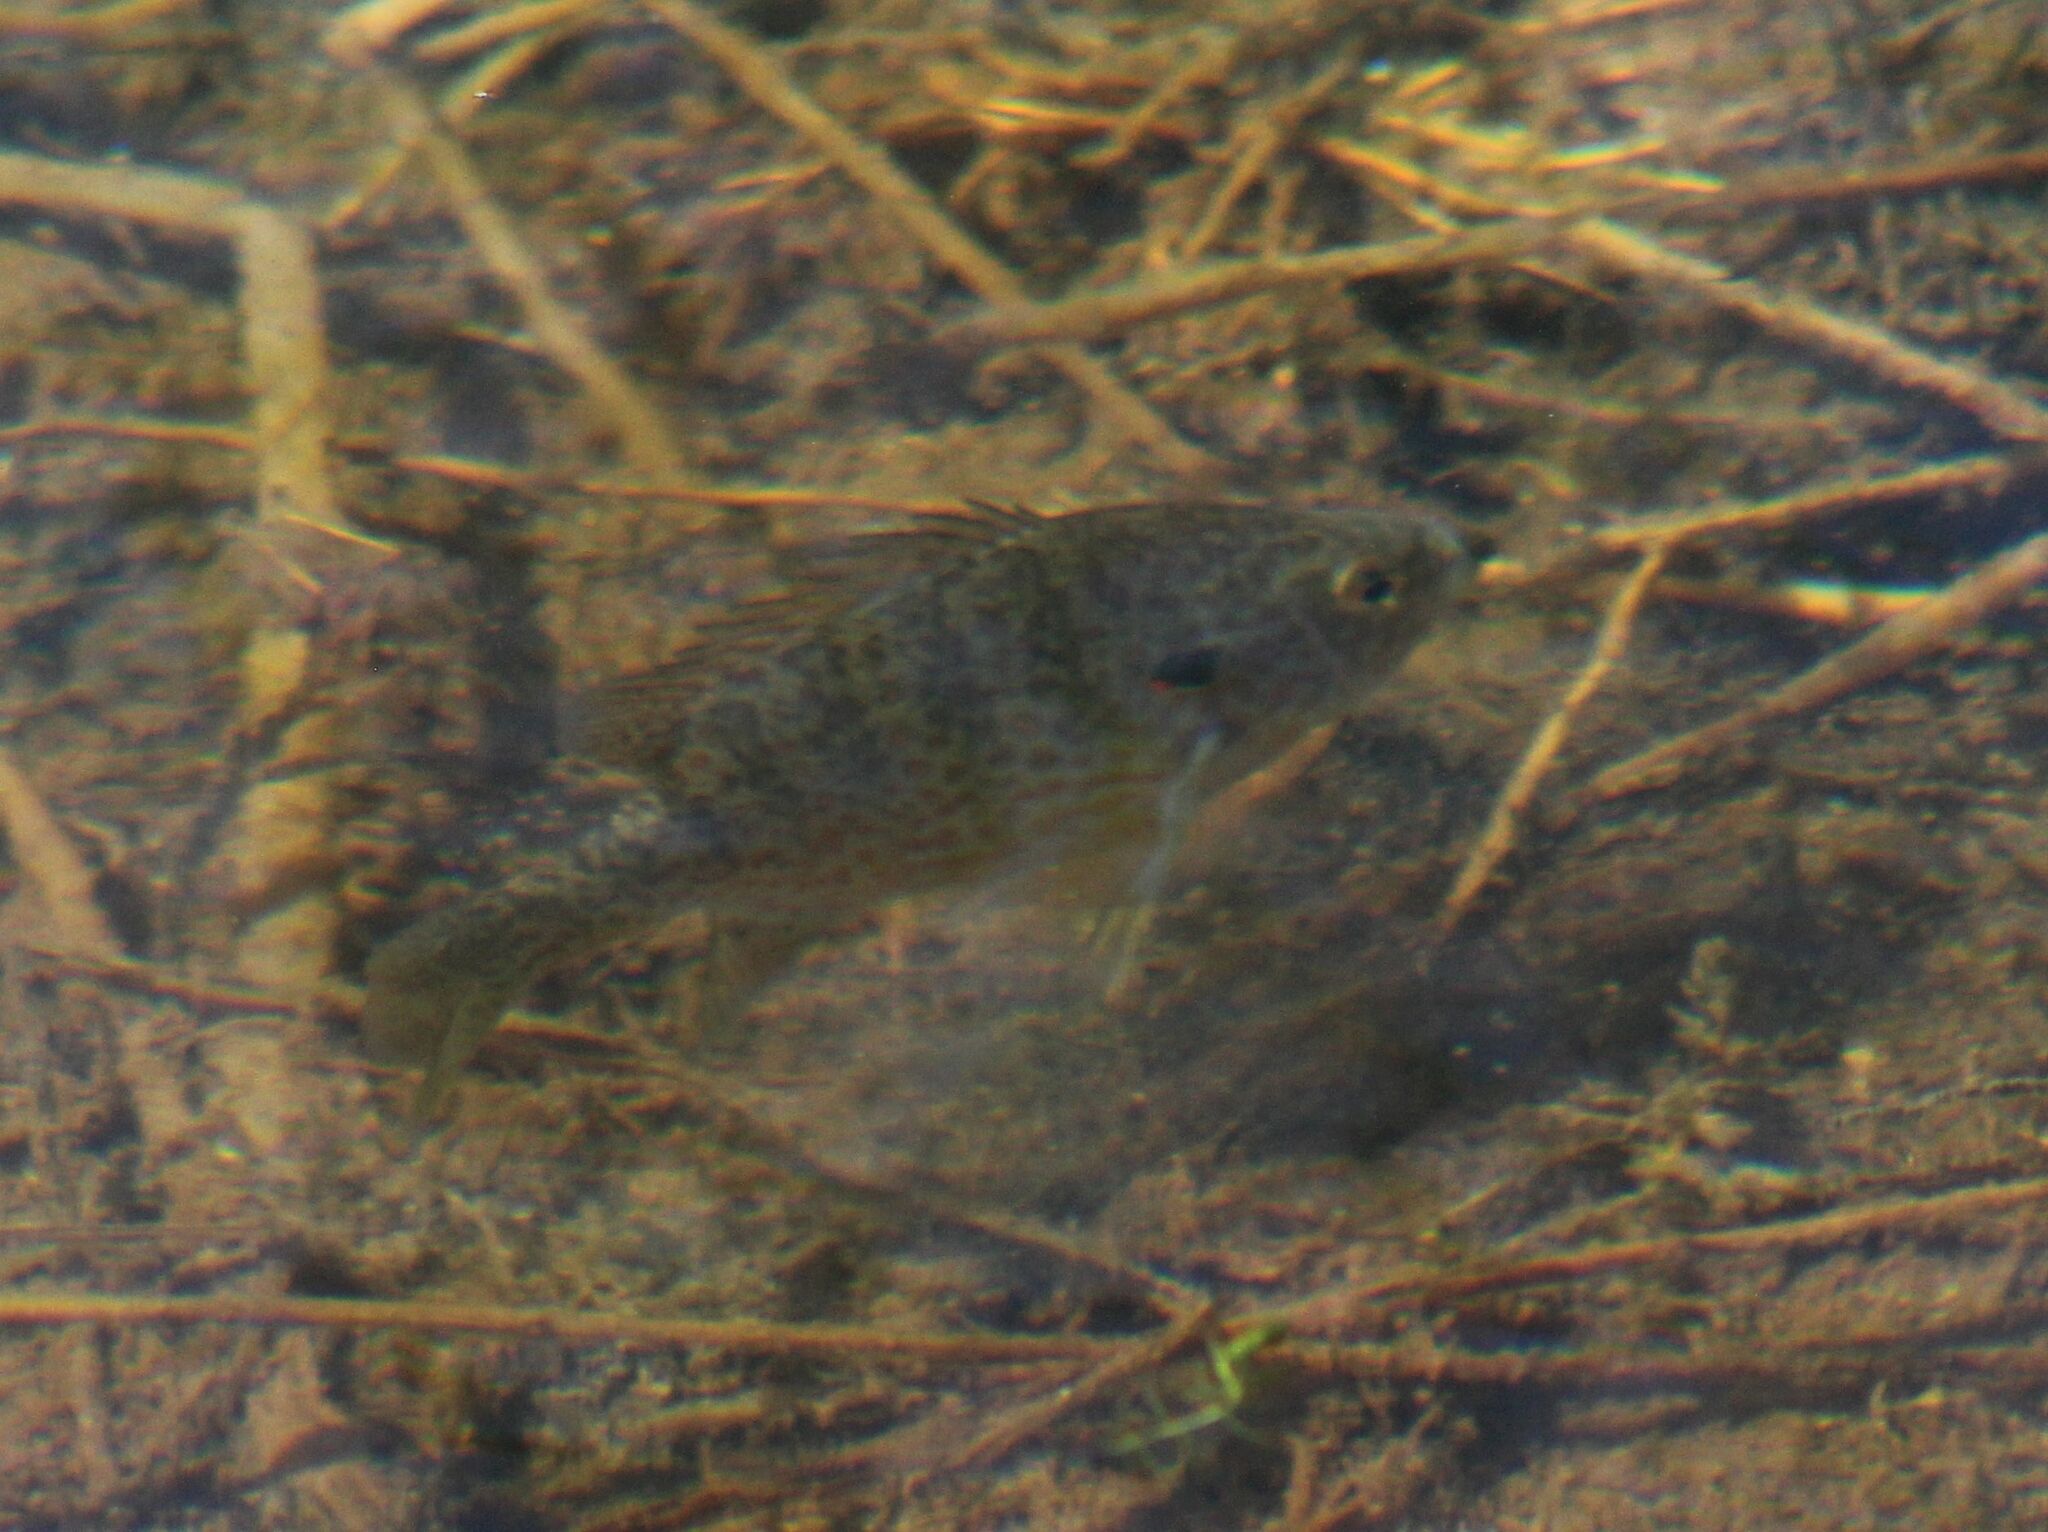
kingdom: Animalia
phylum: Chordata
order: Perciformes
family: Centrarchidae
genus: Lepomis
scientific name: Lepomis gibbosus
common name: Pumpkinseed
